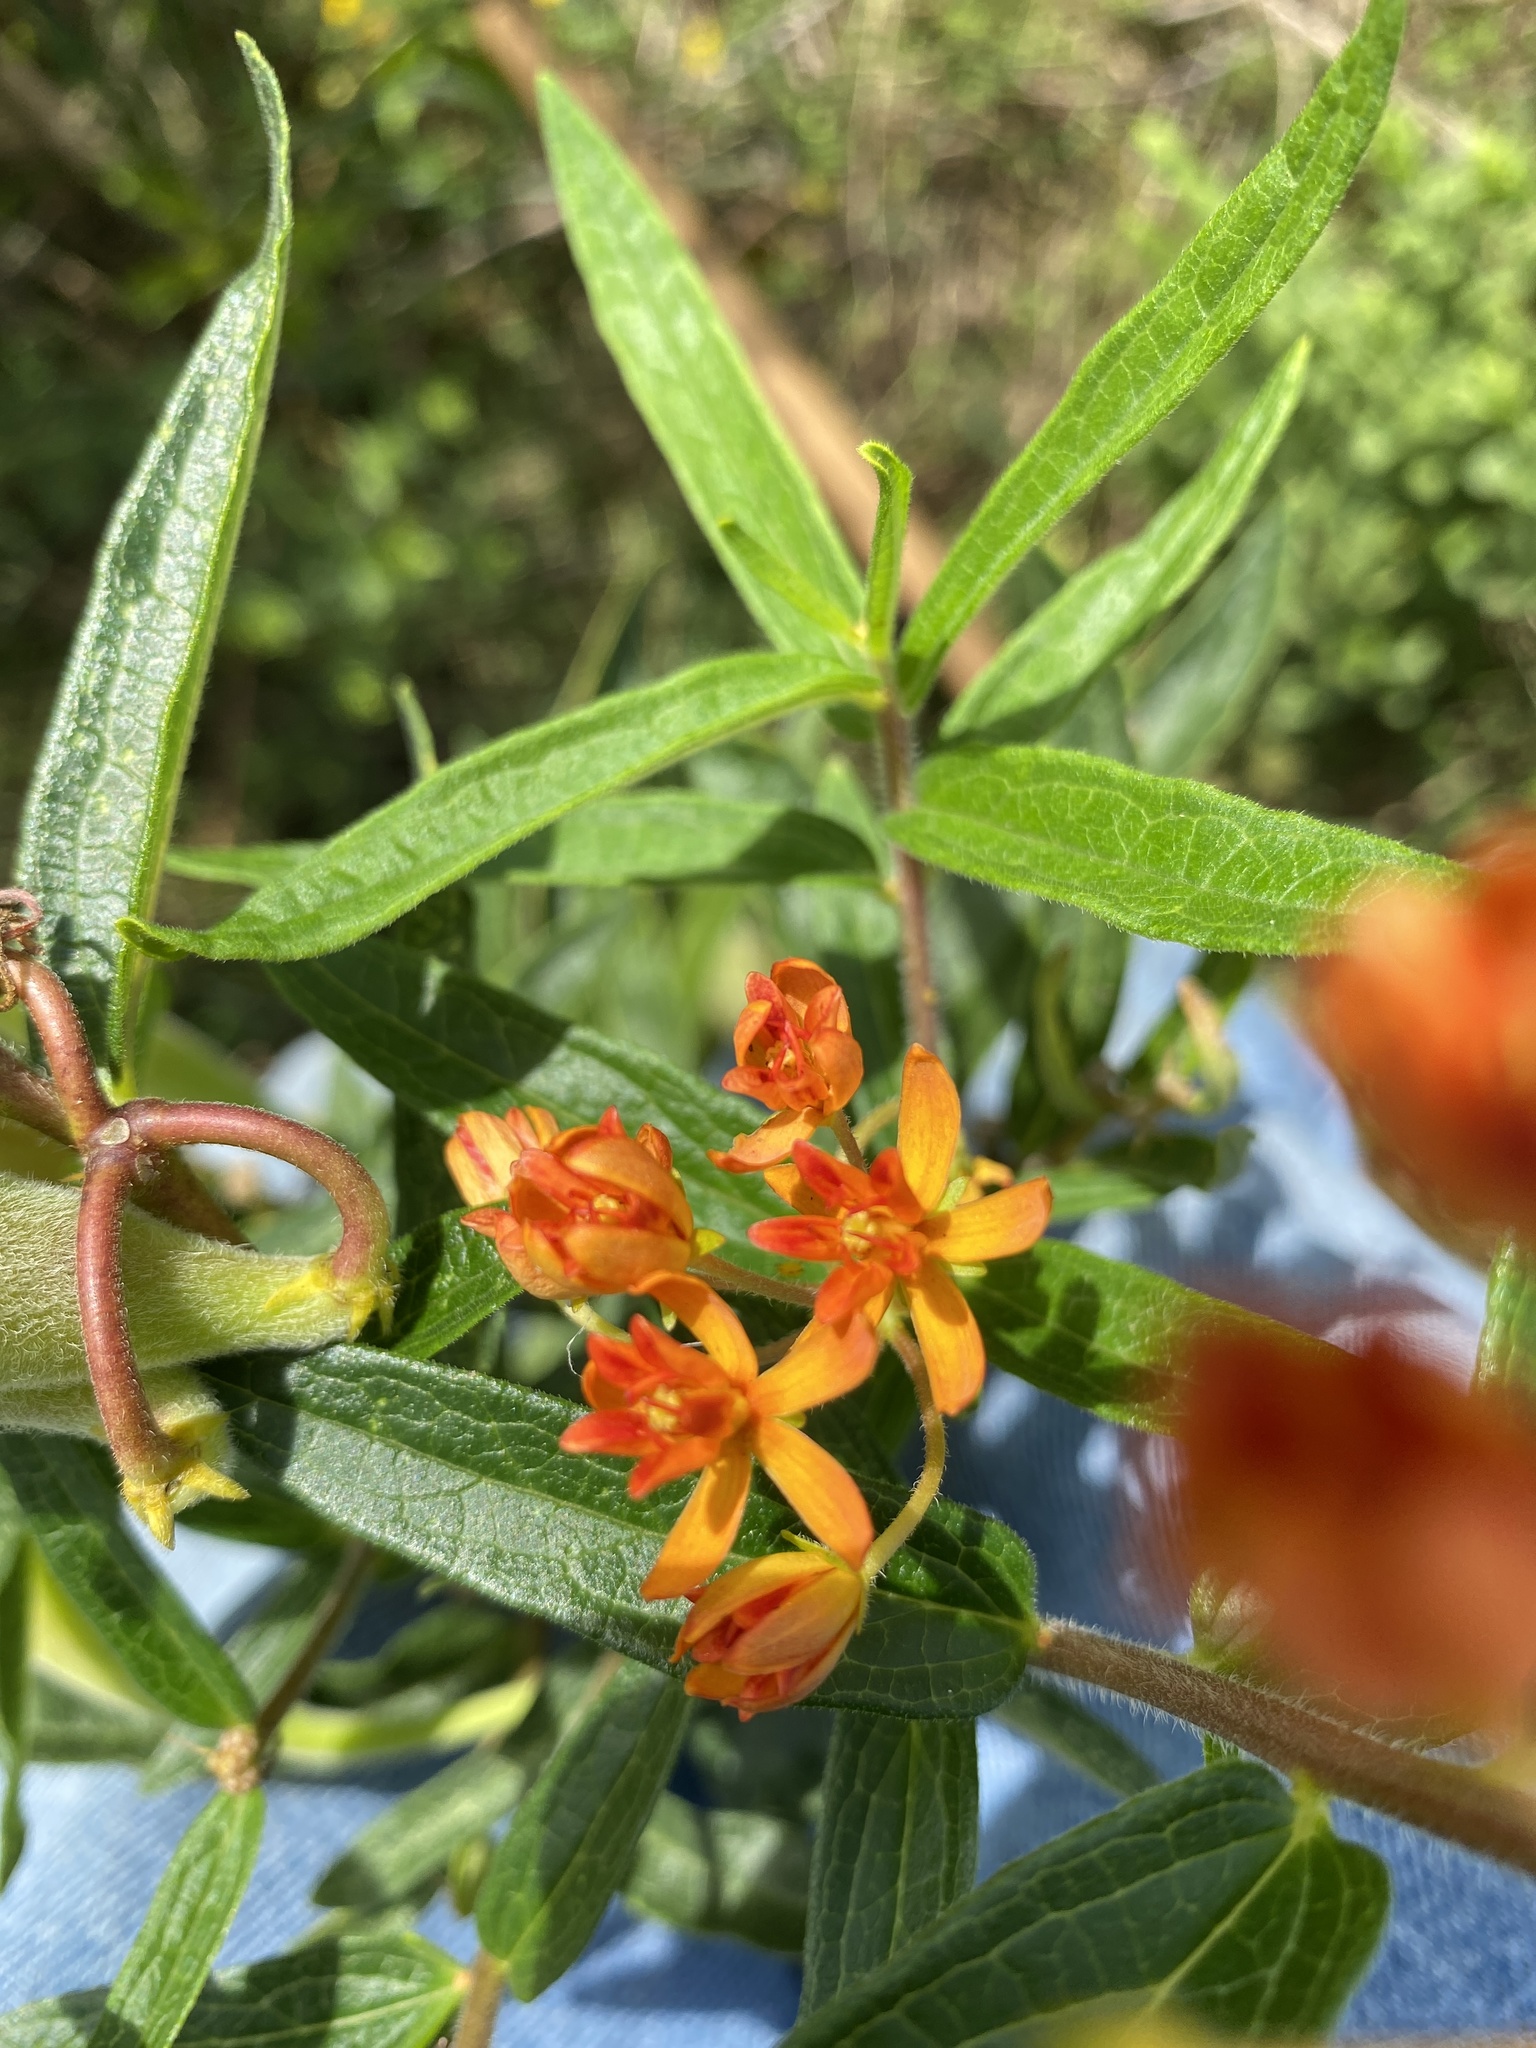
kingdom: Plantae
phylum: Tracheophyta
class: Magnoliopsida
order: Gentianales
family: Apocynaceae
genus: Asclepias
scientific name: Asclepias tuberosa
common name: Butterfly milkweed
